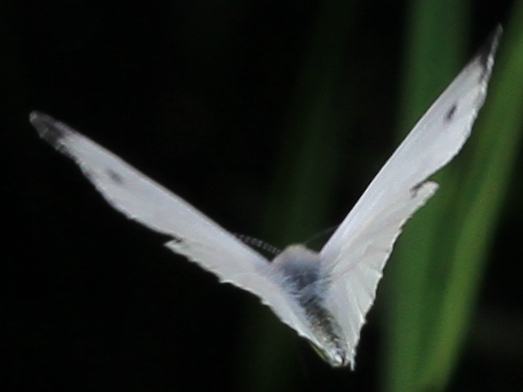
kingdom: Animalia
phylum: Arthropoda
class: Insecta
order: Lepidoptera
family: Pieridae
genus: Pieris
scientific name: Pieris napi
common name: Green-veined white
